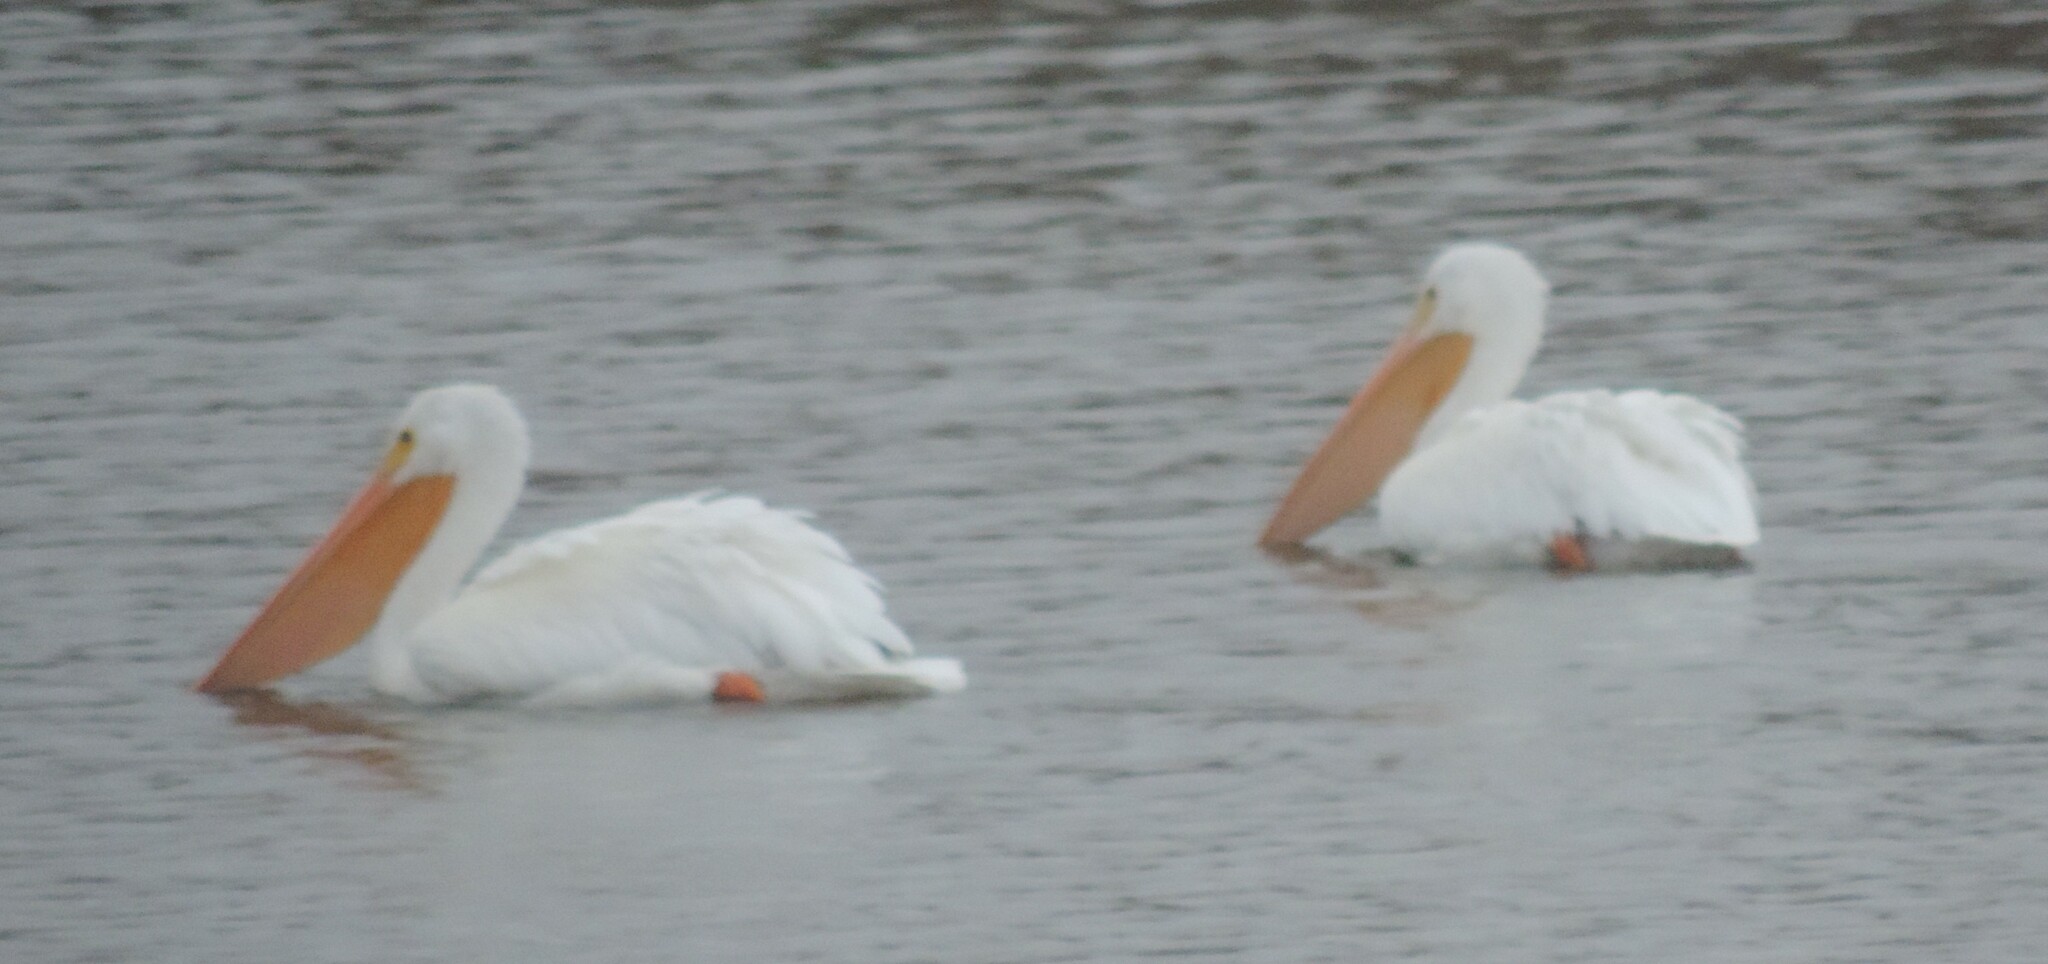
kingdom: Animalia
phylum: Chordata
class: Aves
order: Pelecaniformes
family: Pelecanidae
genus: Pelecanus
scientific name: Pelecanus erythrorhynchos
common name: American white pelican
